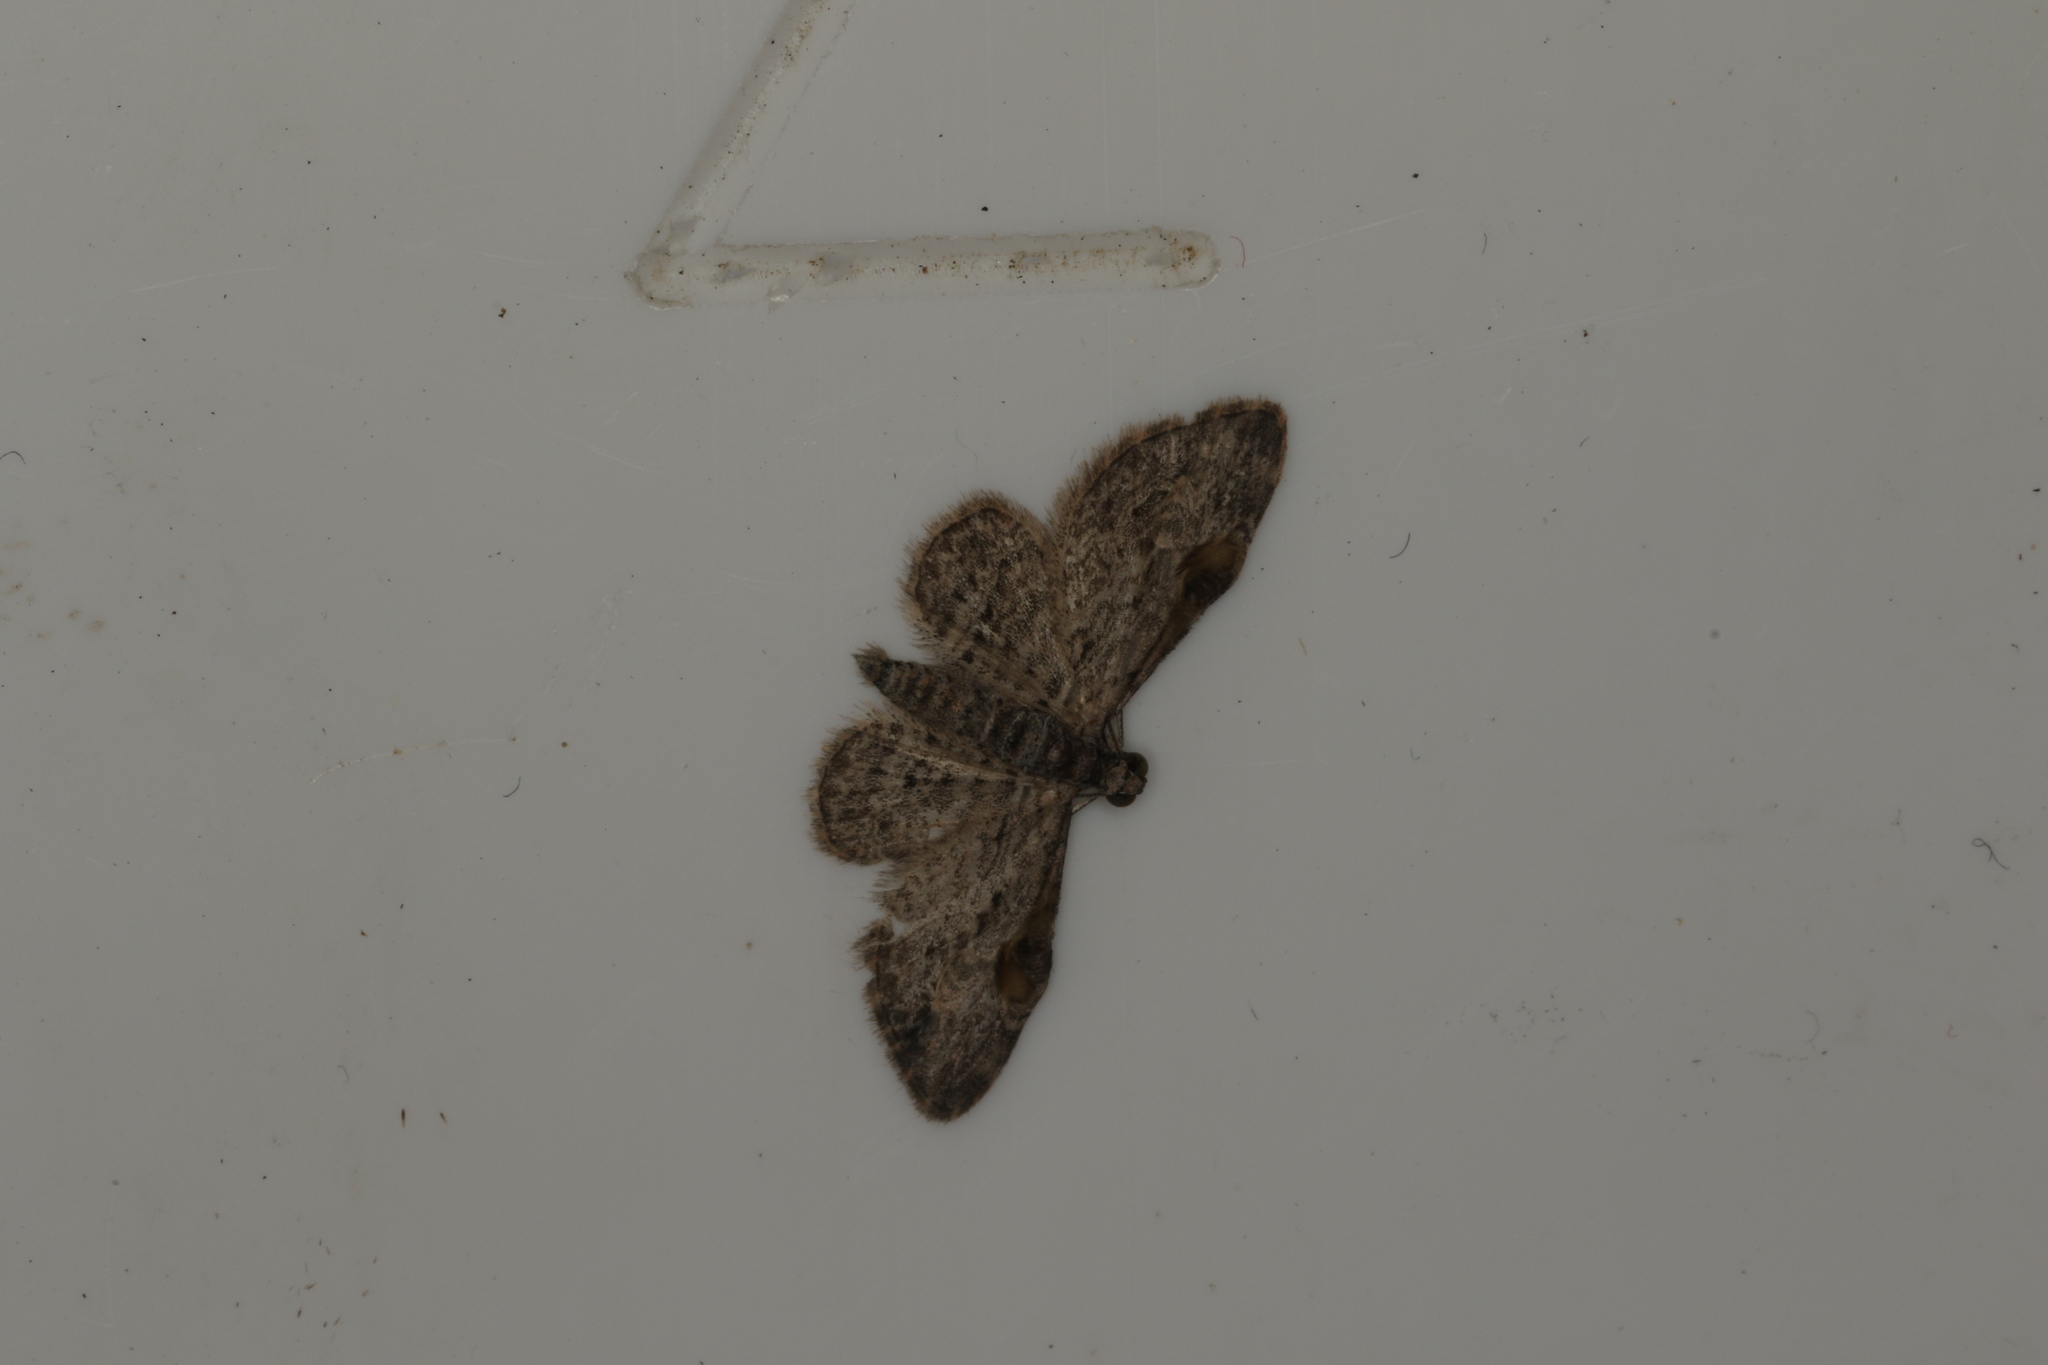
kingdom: Animalia
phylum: Arthropoda
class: Insecta
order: Lepidoptera
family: Geometridae
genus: Chloroclystis
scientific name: Chloroclystis insigillata
